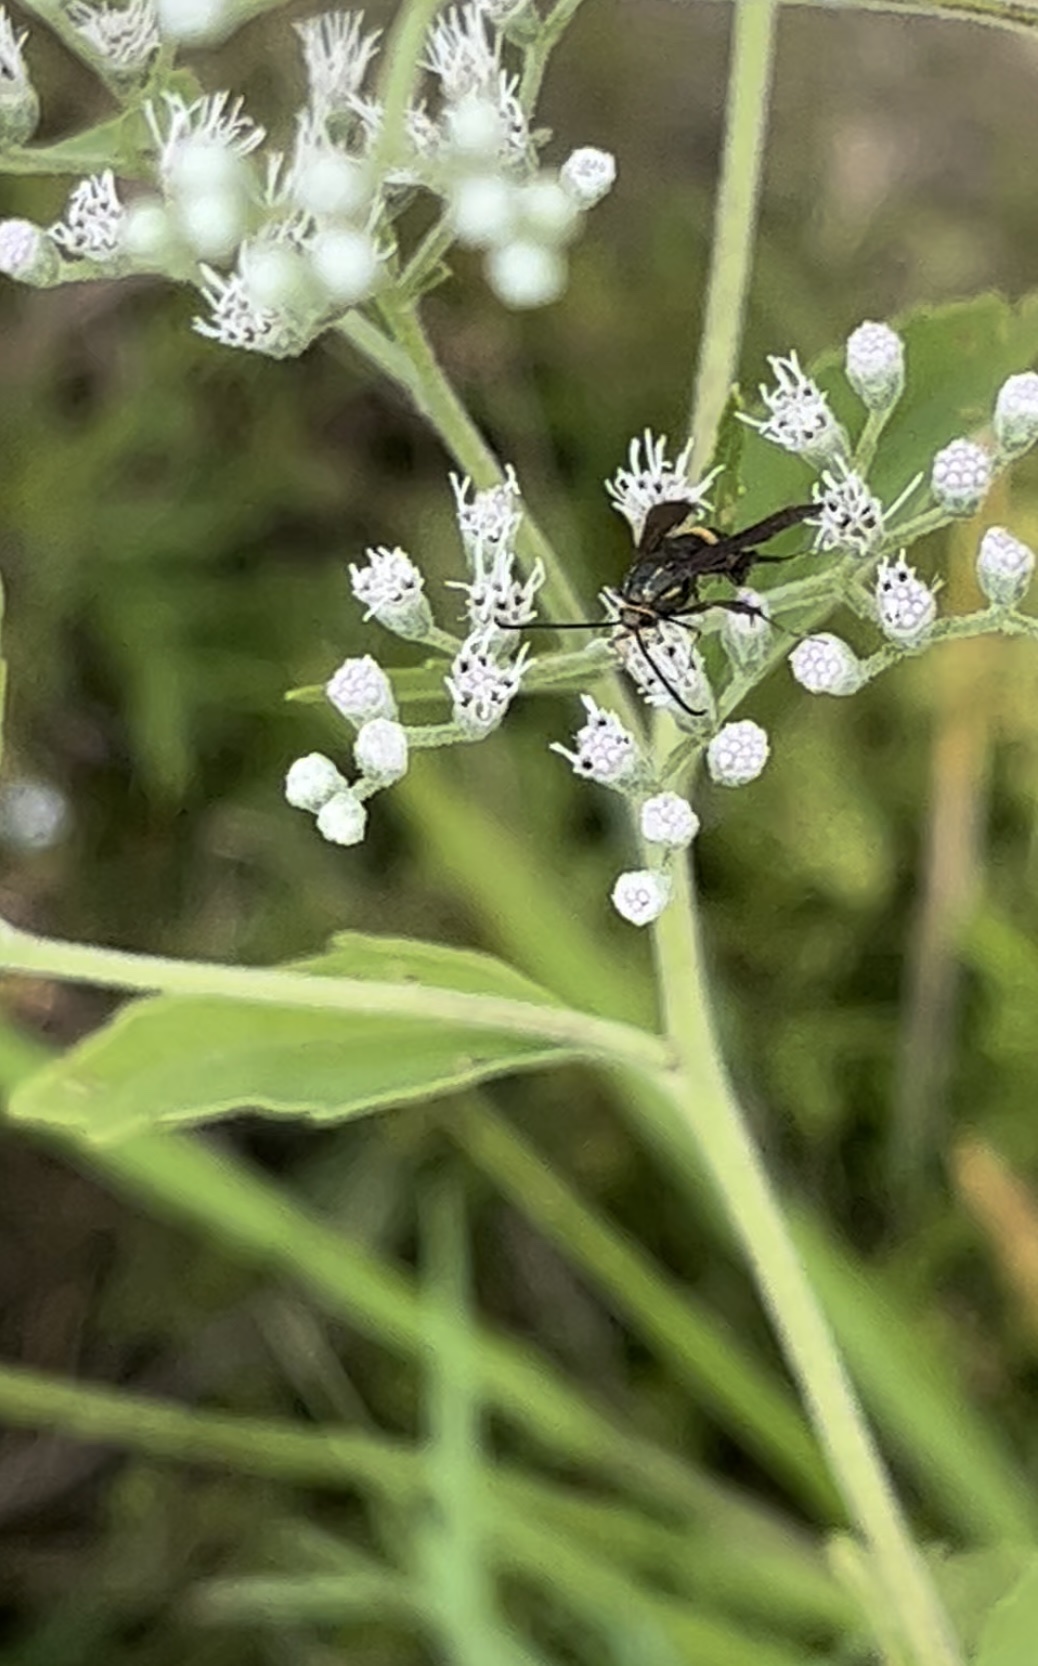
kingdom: Animalia
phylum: Arthropoda
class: Insecta
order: Lepidoptera
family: Sesiidae
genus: Carmenta
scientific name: Carmenta pyralidiformis
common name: Boneset borer moth
